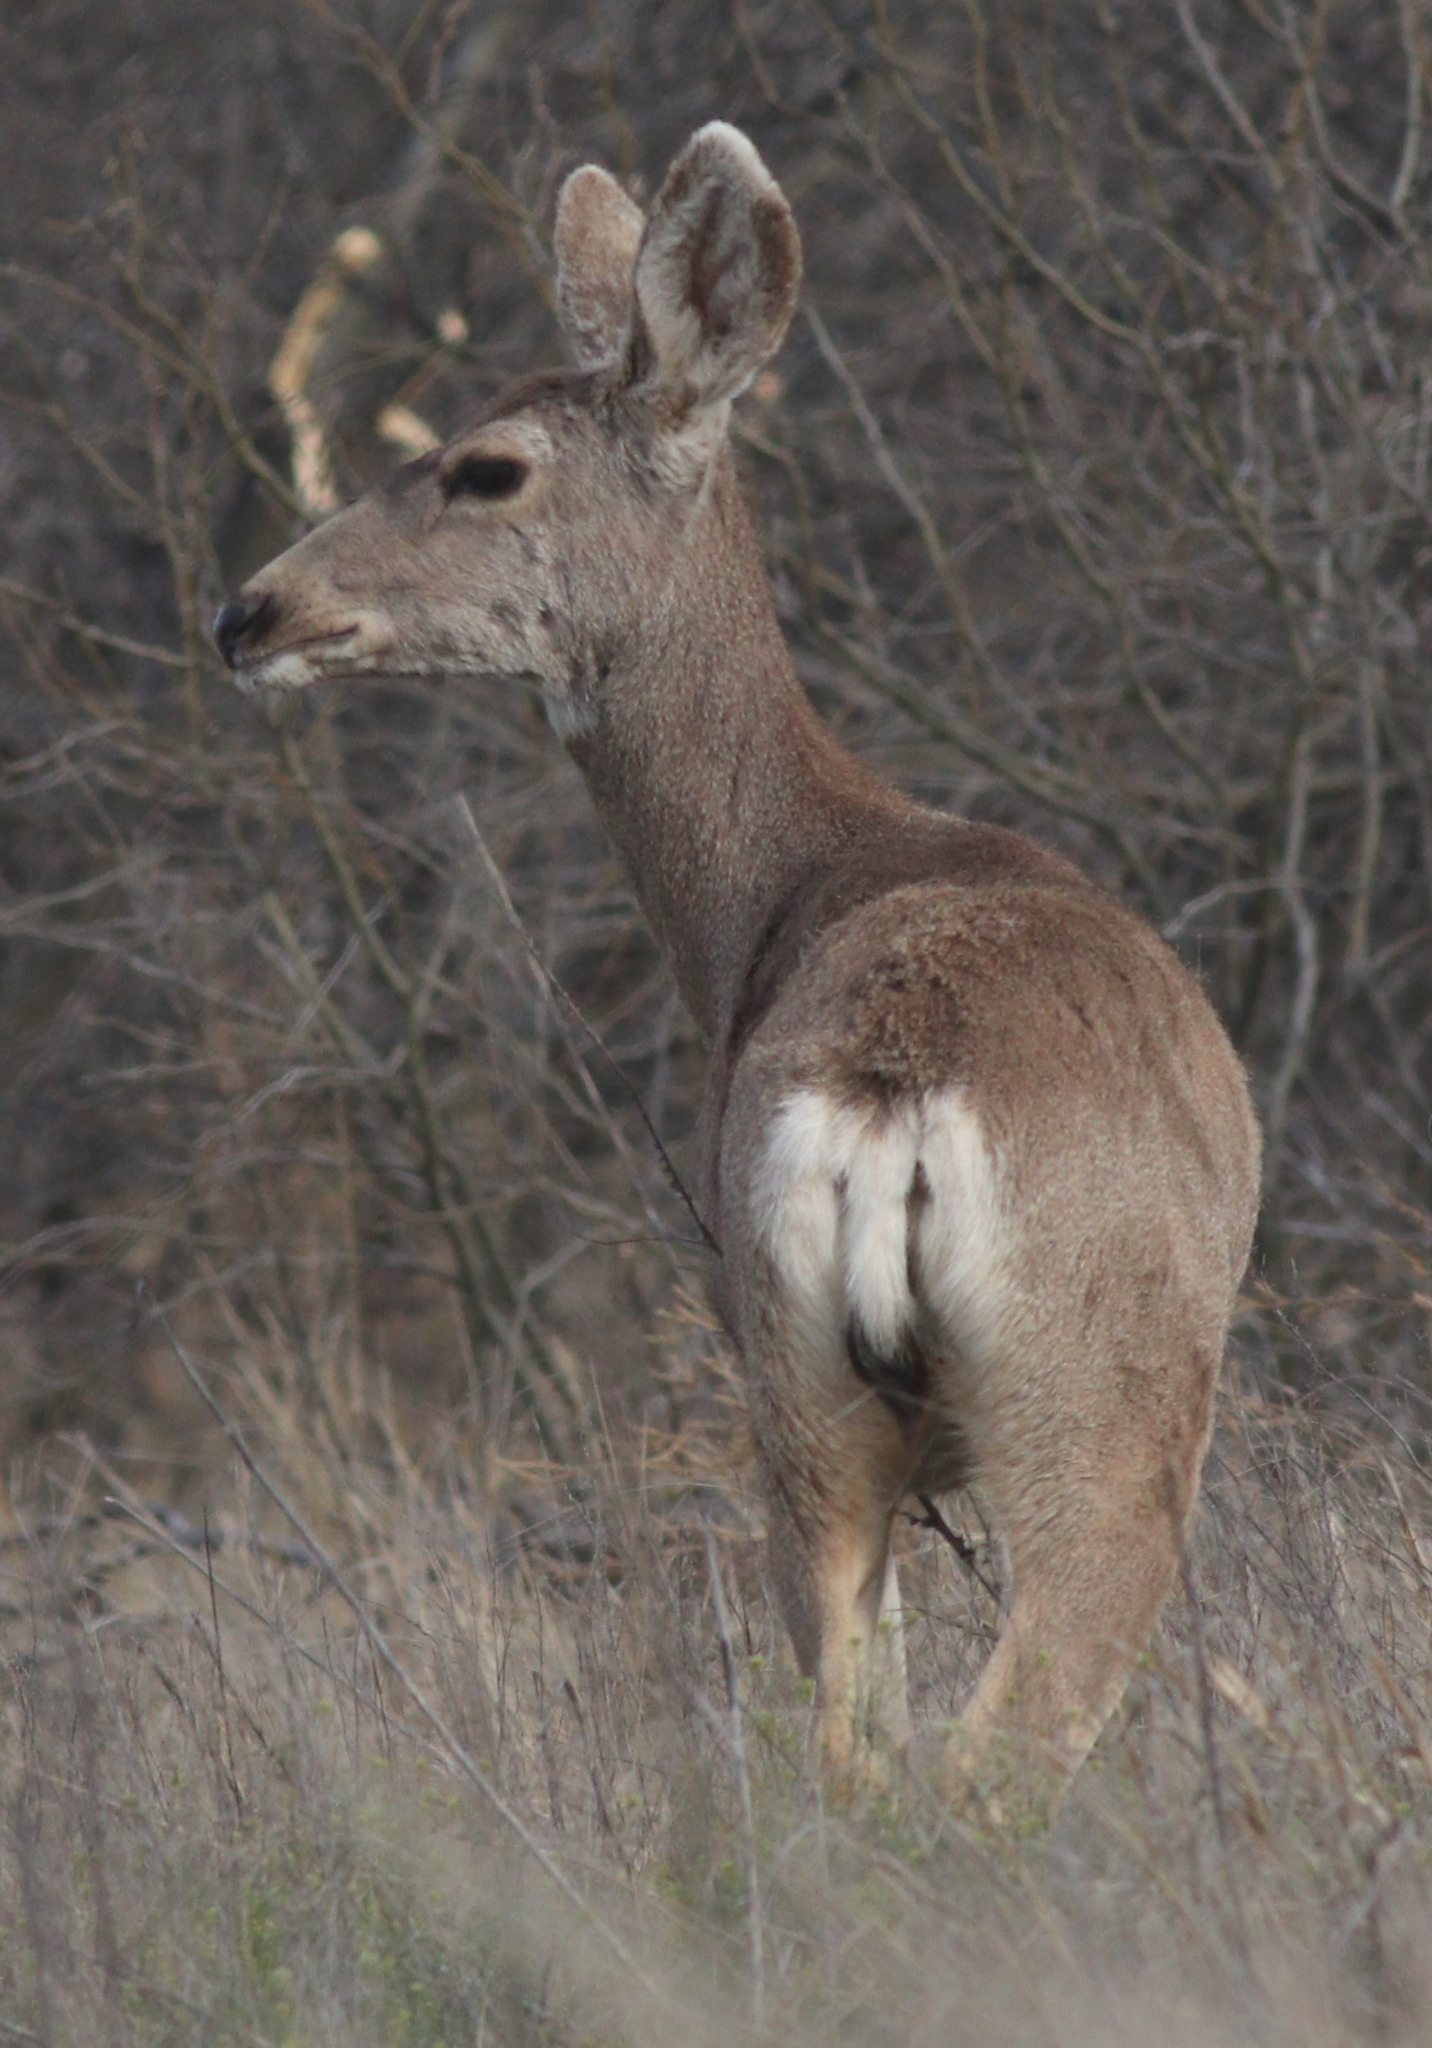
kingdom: Animalia
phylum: Chordata
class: Mammalia
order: Artiodactyla
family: Cervidae
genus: Odocoileus
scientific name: Odocoileus hemionus
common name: Mule deer
